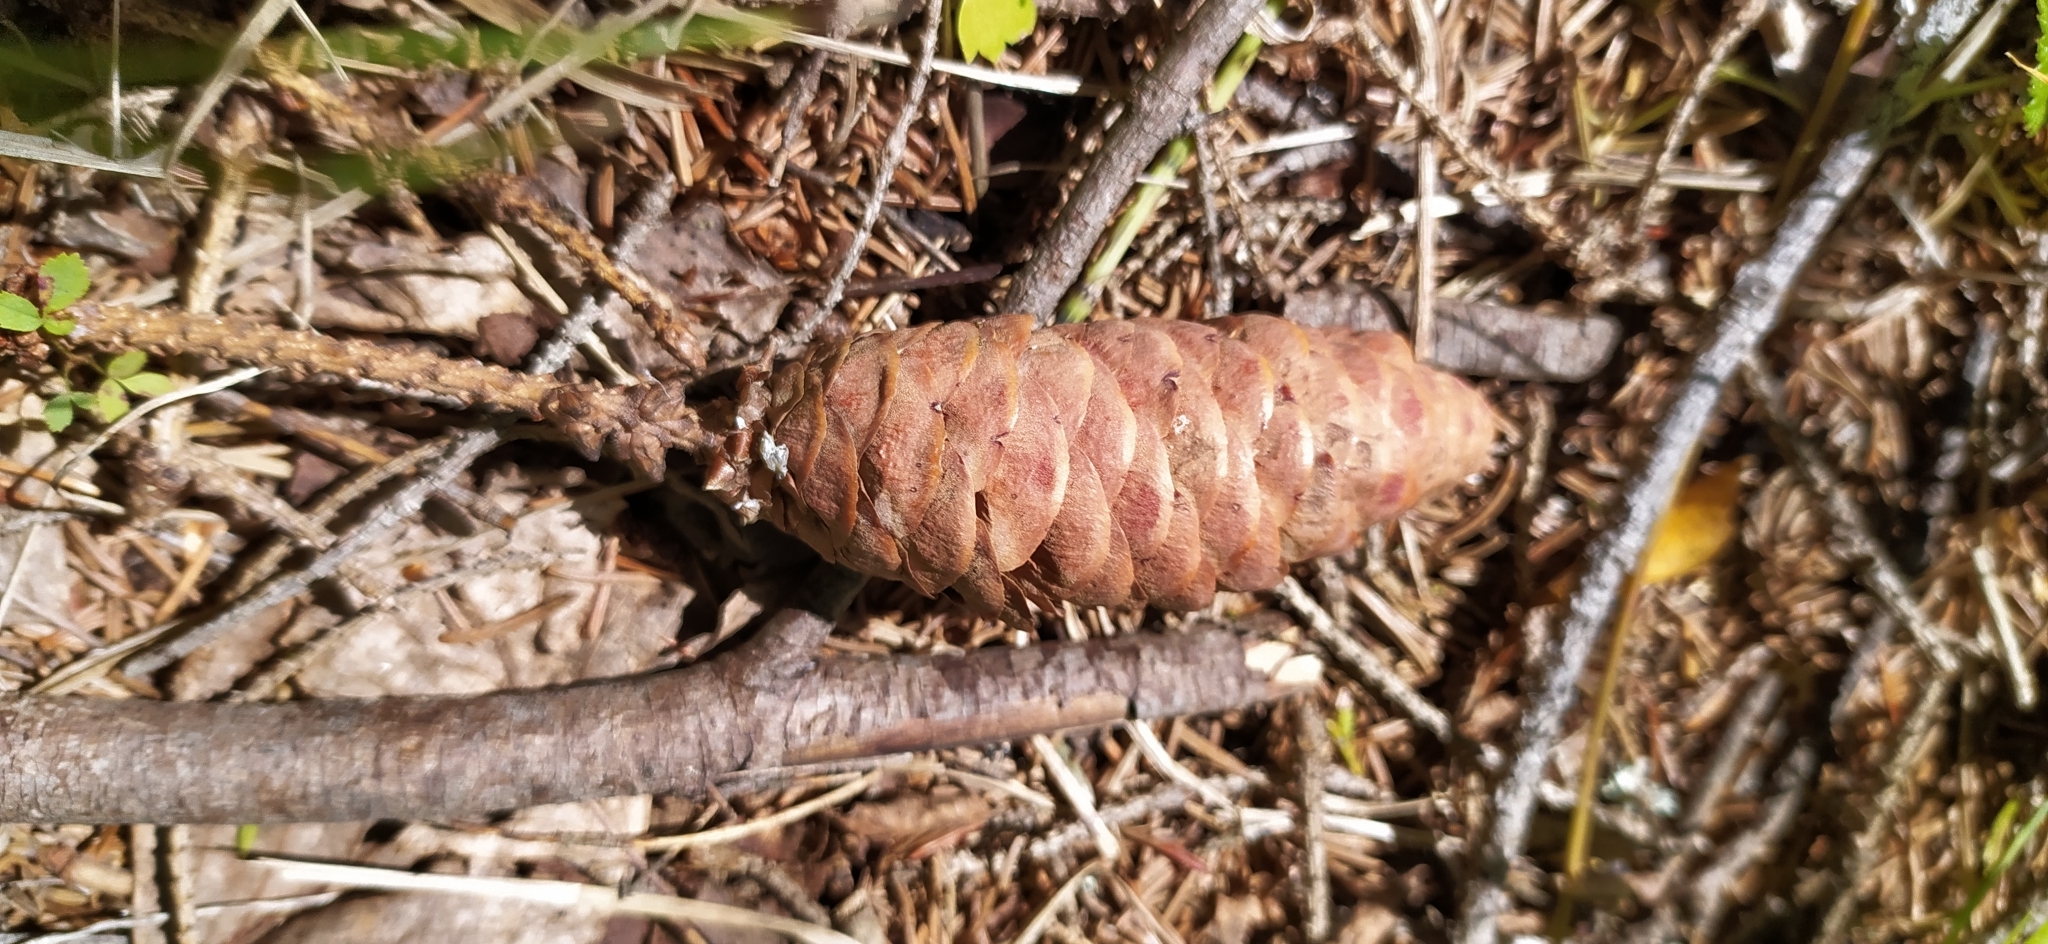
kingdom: Plantae
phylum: Tracheophyta
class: Pinopsida
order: Pinales
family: Pinaceae
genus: Picea
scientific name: Picea obovata
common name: Siberian spruce
